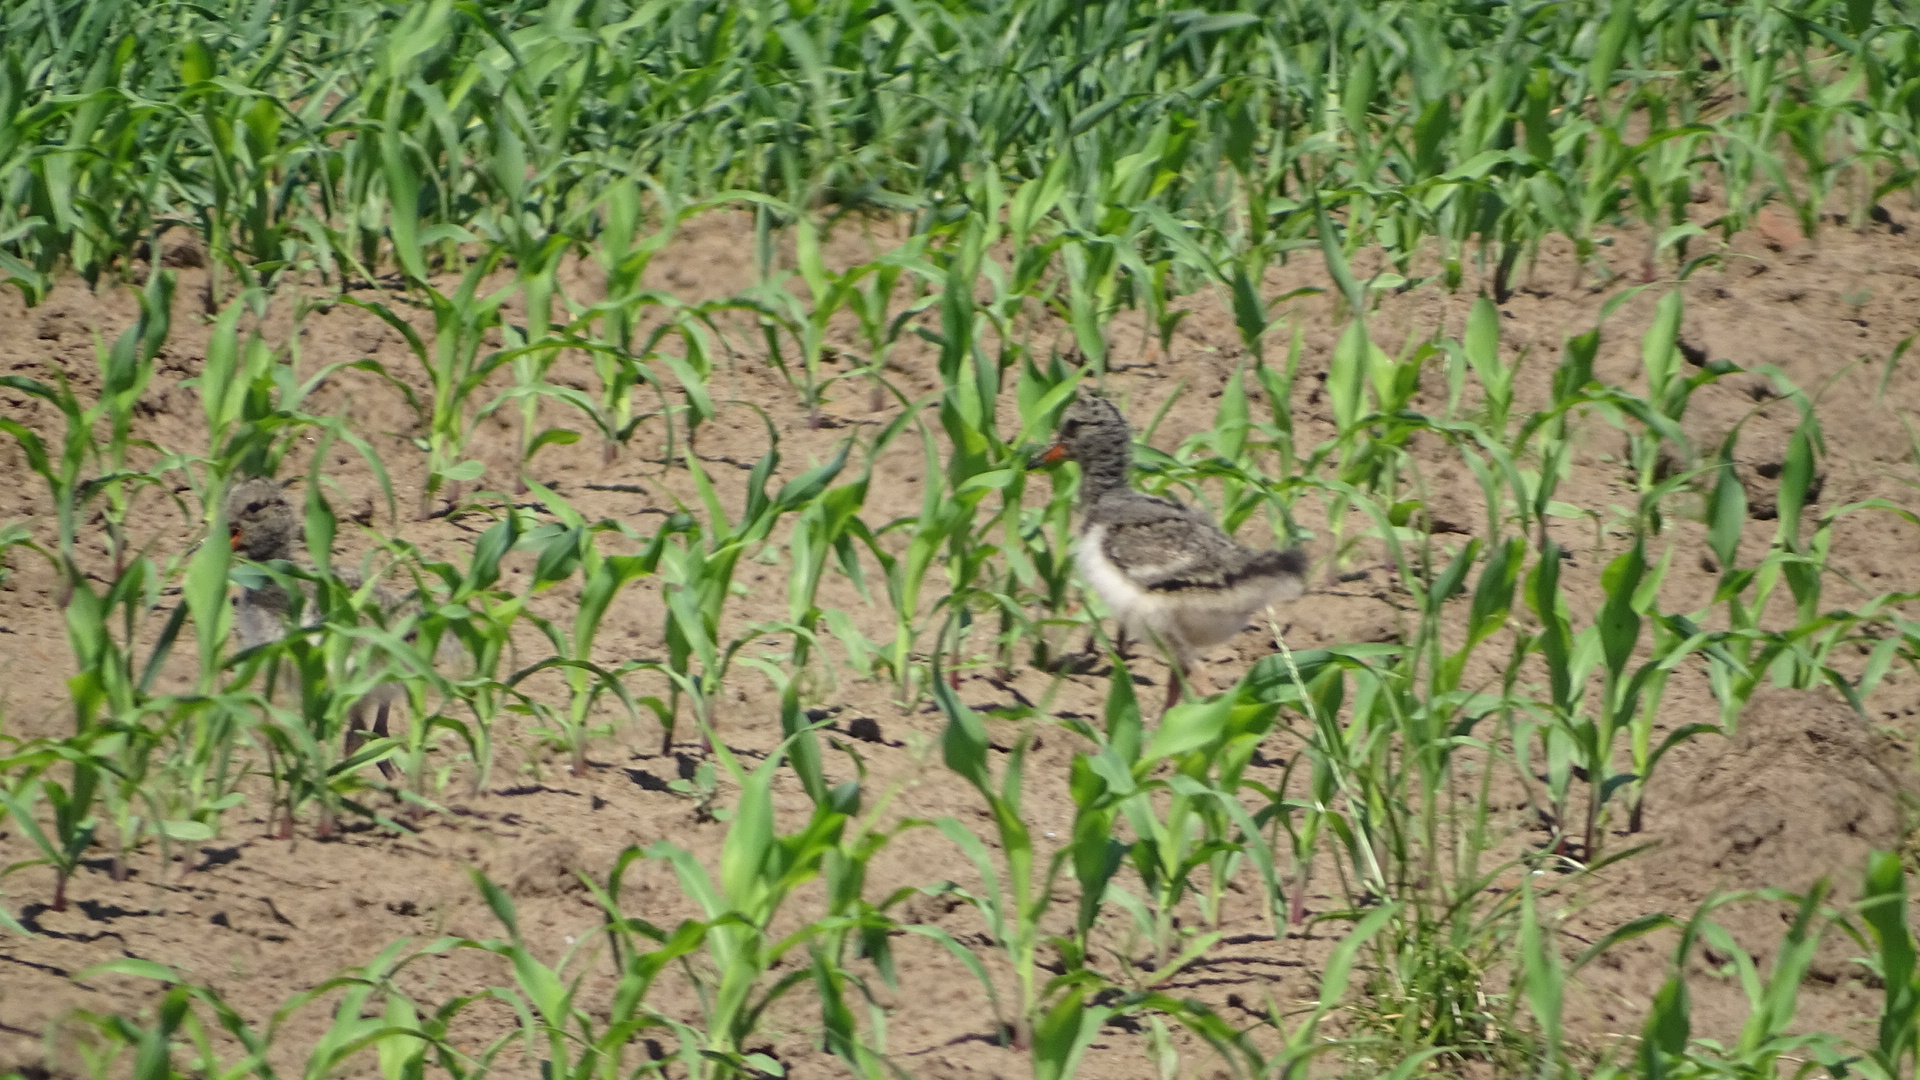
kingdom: Animalia
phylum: Chordata
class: Aves
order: Charadriiformes
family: Haematopodidae
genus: Haematopus
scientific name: Haematopus ostralegus
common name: Eurasian oystercatcher
